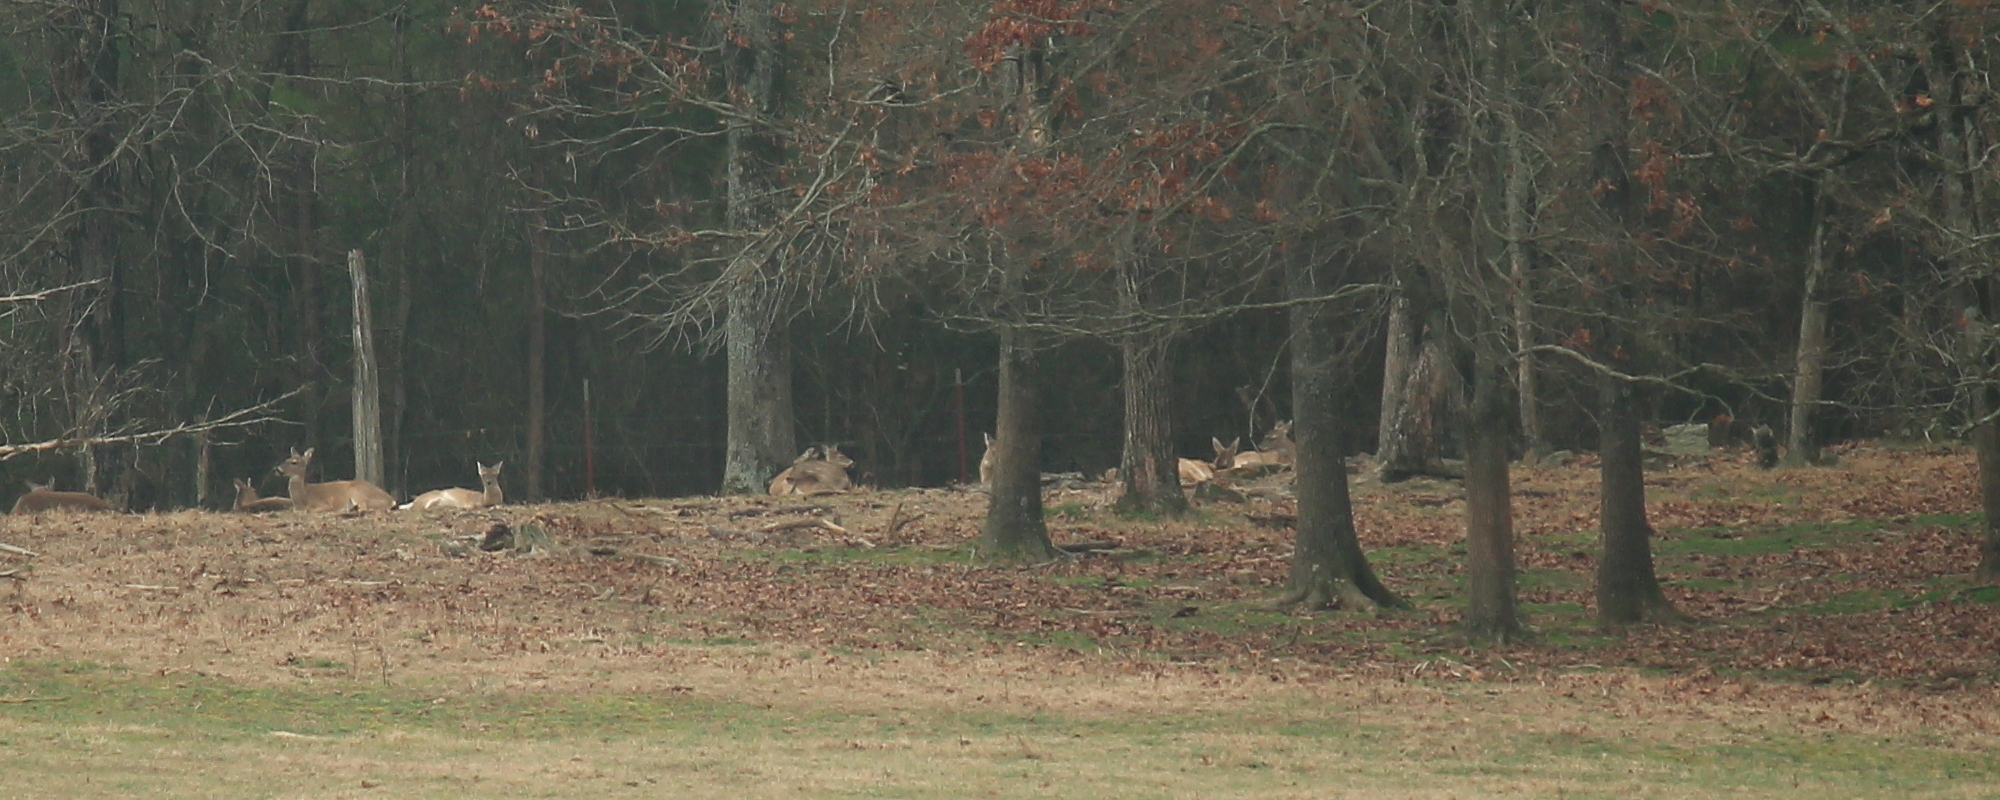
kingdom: Animalia
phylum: Chordata
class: Mammalia
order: Artiodactyla
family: Cervidae
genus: Odocoileus
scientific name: Odocoileus virginianus
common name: White-tailed deer
